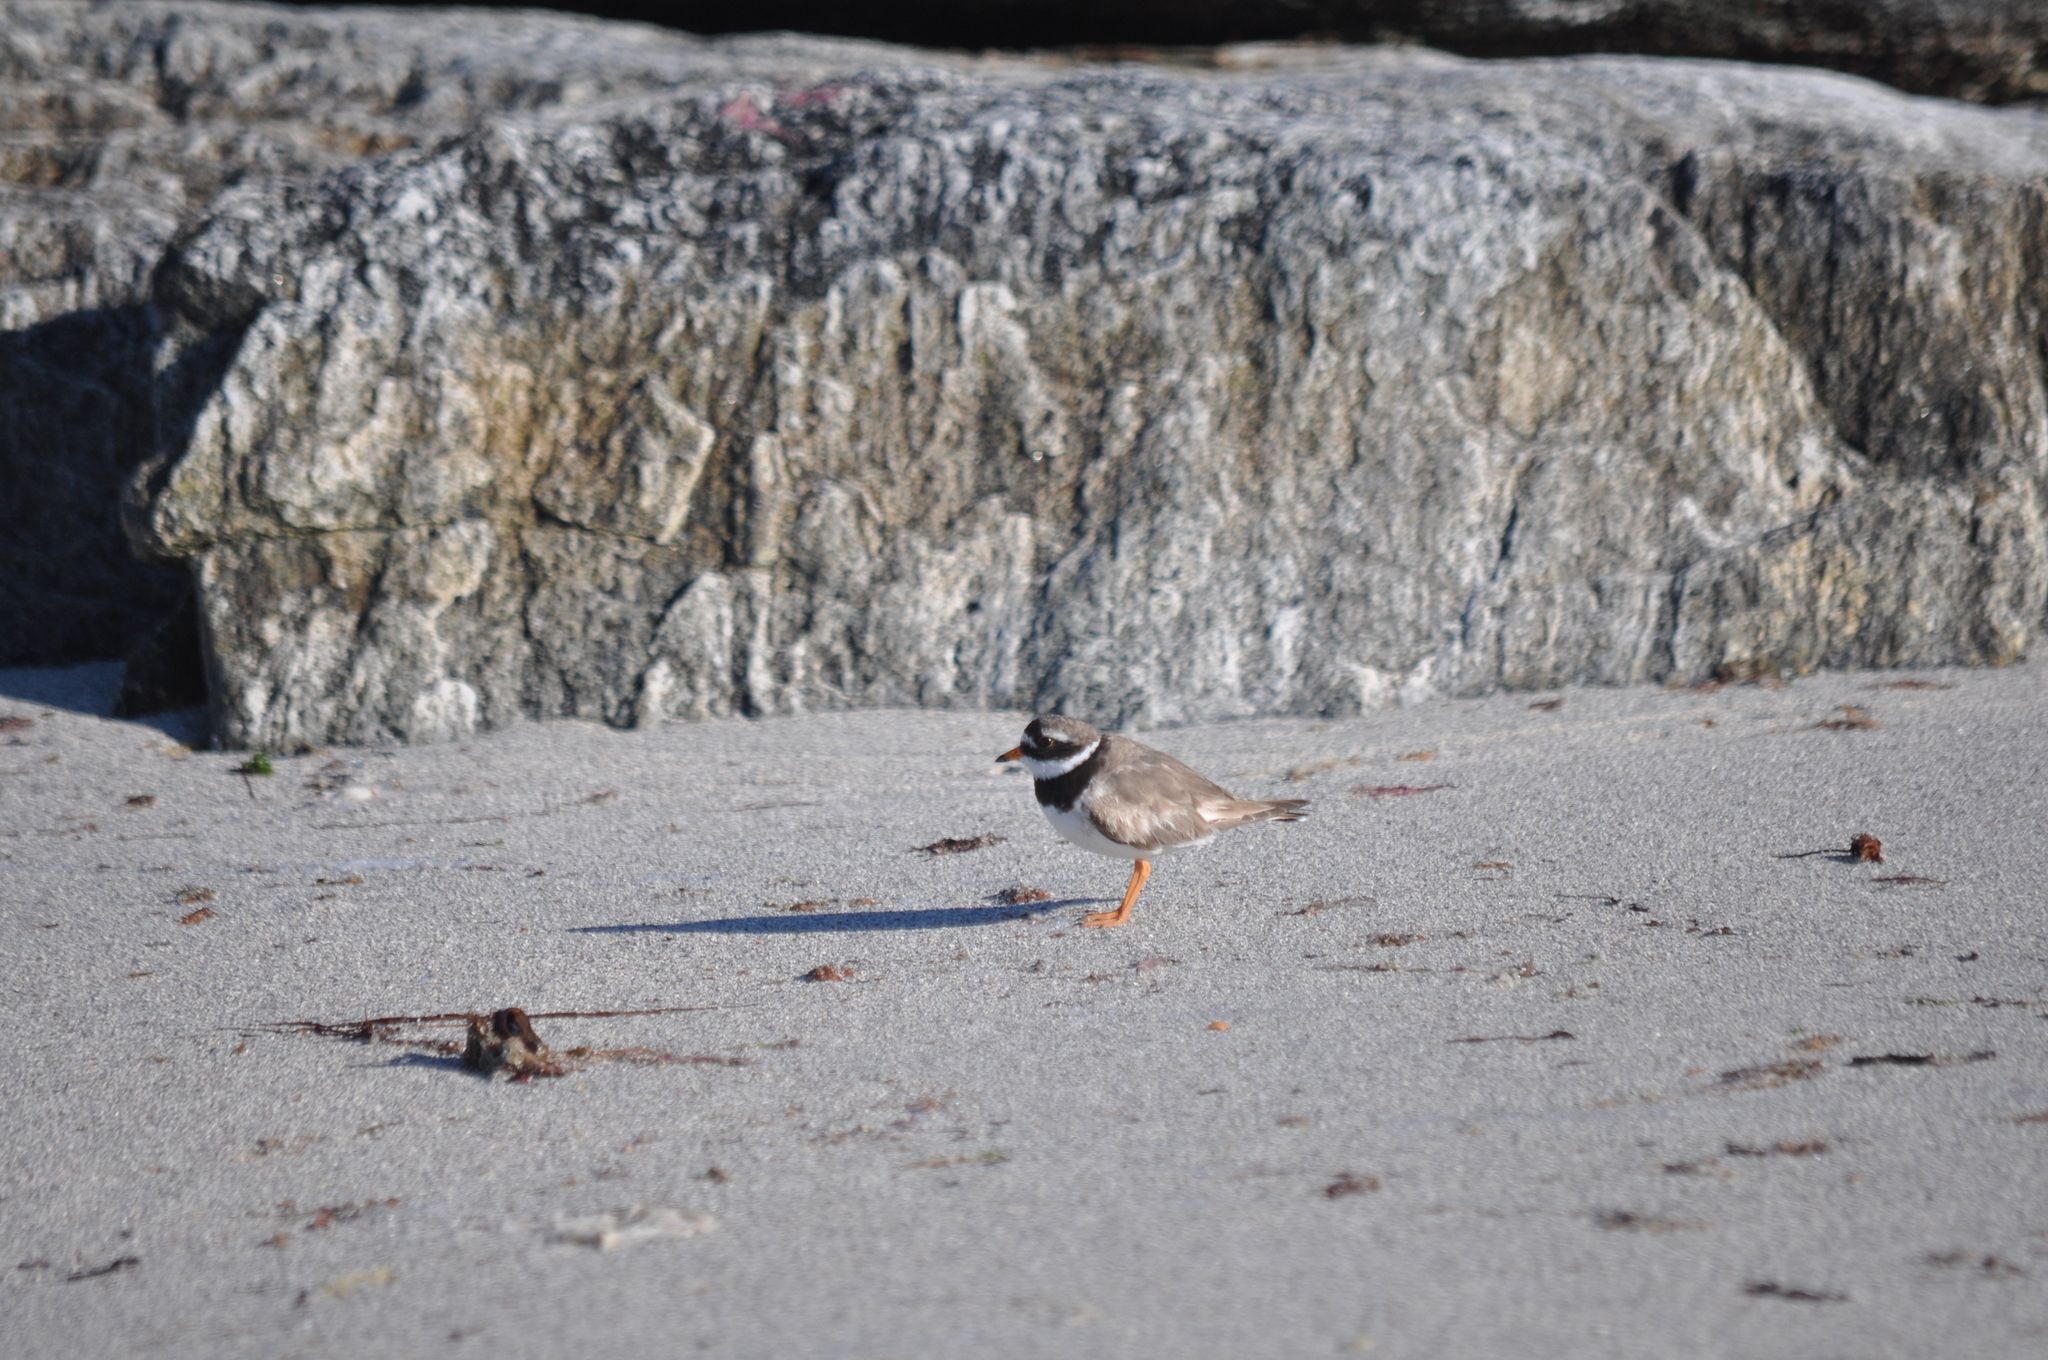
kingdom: Animalia
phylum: Chordata
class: Aves
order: Charadriiformes
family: Charadriidae
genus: Charadrius
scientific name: Charadrius hiaticula
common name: Common ringed plover
